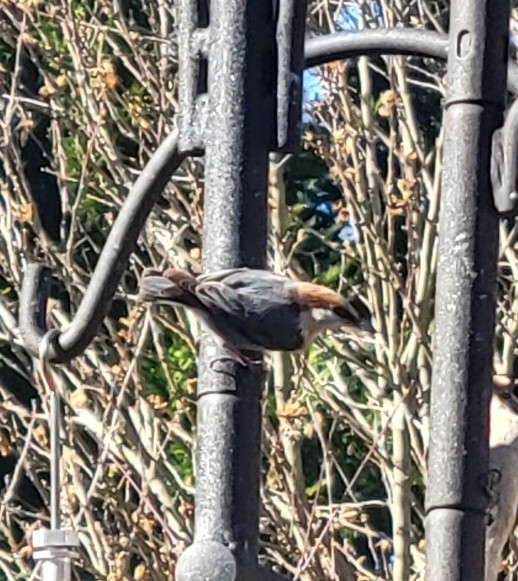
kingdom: Animalia
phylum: Chordata
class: Aves
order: Passeriformes
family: Sittidae
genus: Sitta
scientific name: Sitta pusilla
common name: Brown-headed nuthatch
